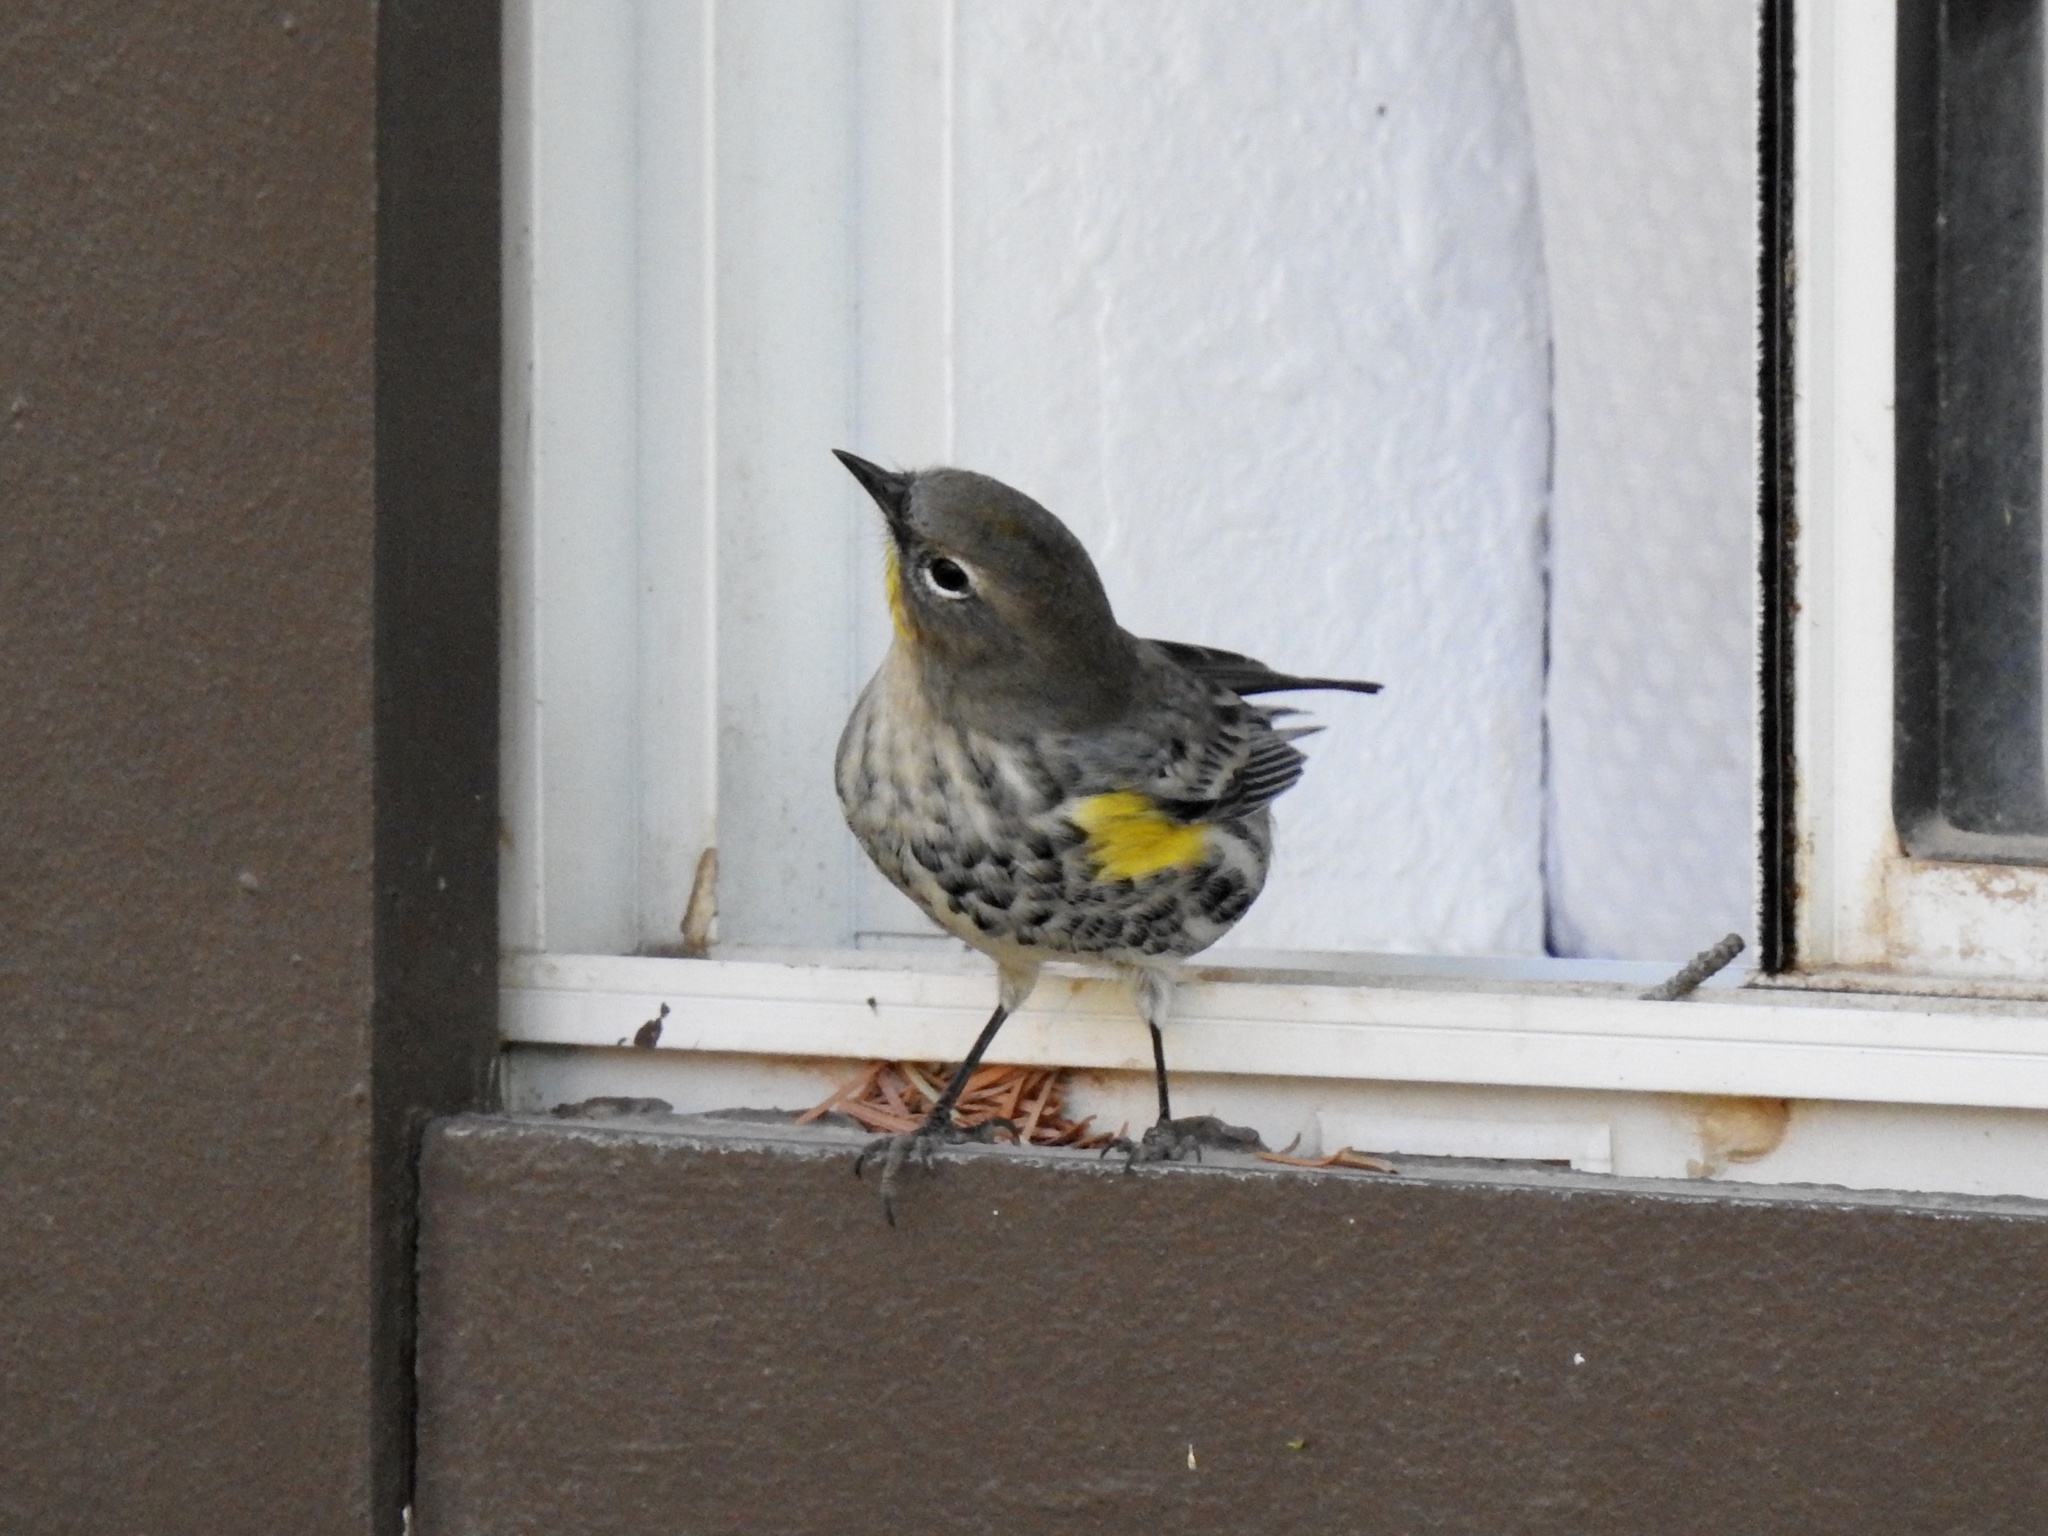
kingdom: Animalia
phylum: Chordata
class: Aves
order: Passeriformes
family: Parulidae
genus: Setophaga
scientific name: Setophaga coronata
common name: Myrtle warbler
